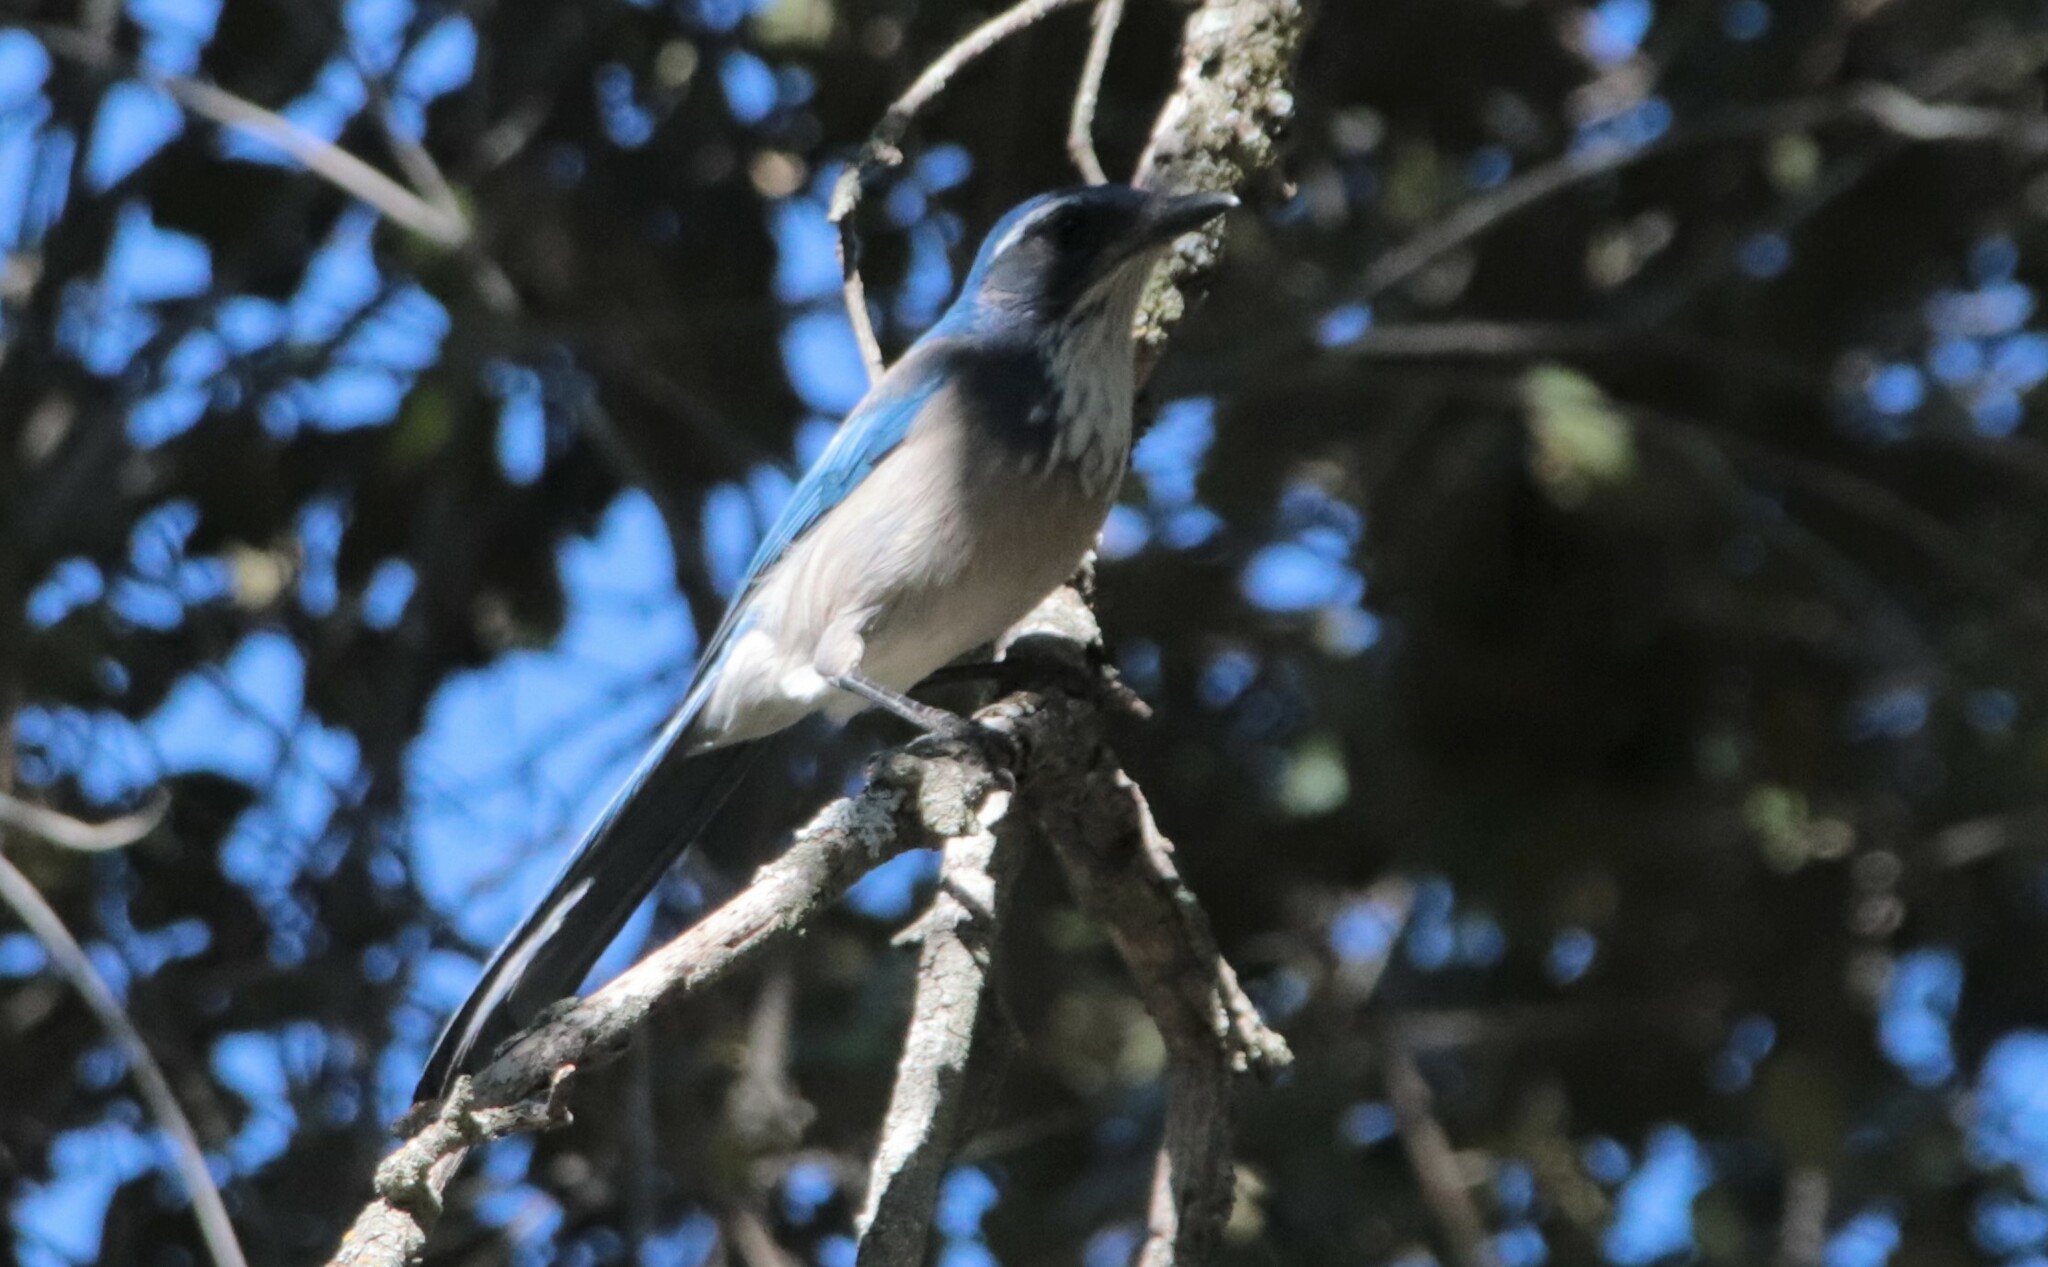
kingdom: Animalia
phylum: Chordata
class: Aves
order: Passeriformes
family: Corvidae
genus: Aphelocoma
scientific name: Aphelocoma californica
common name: California scrub-jay
